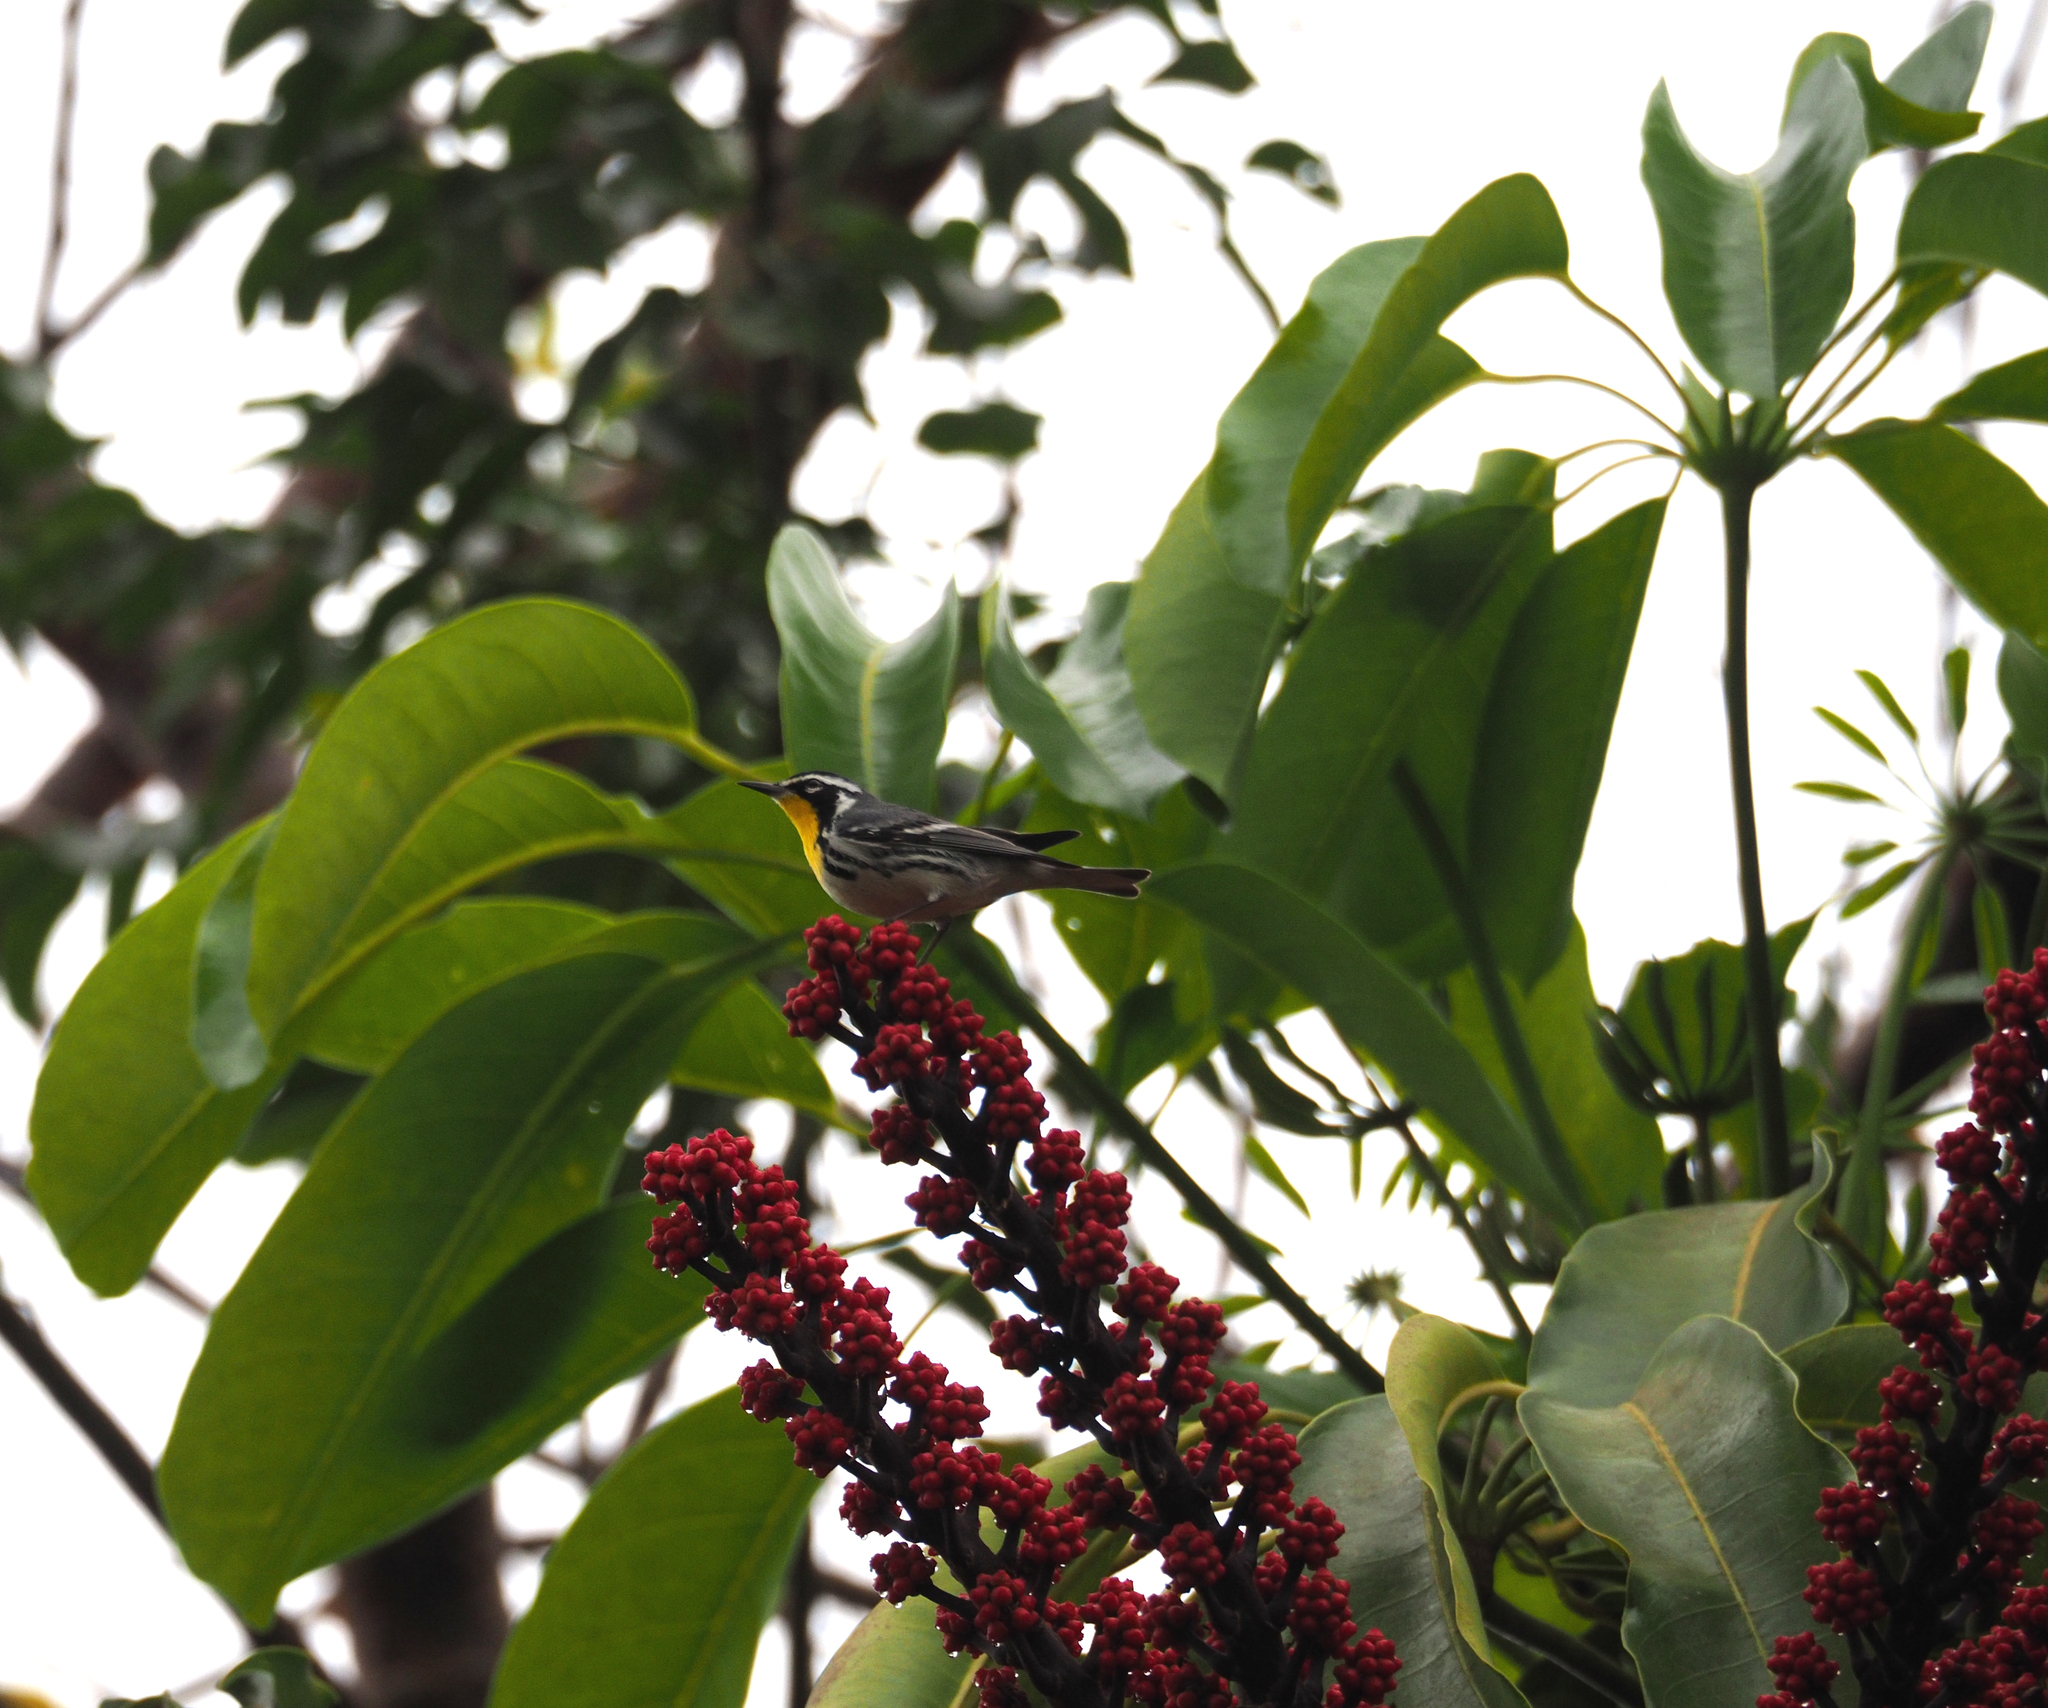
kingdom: Plantae
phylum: Tracheophyta
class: Magnoliopsida
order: Apiales
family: Araliaceae
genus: Heptapleurum
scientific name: Heptapleurum actinophyllum
